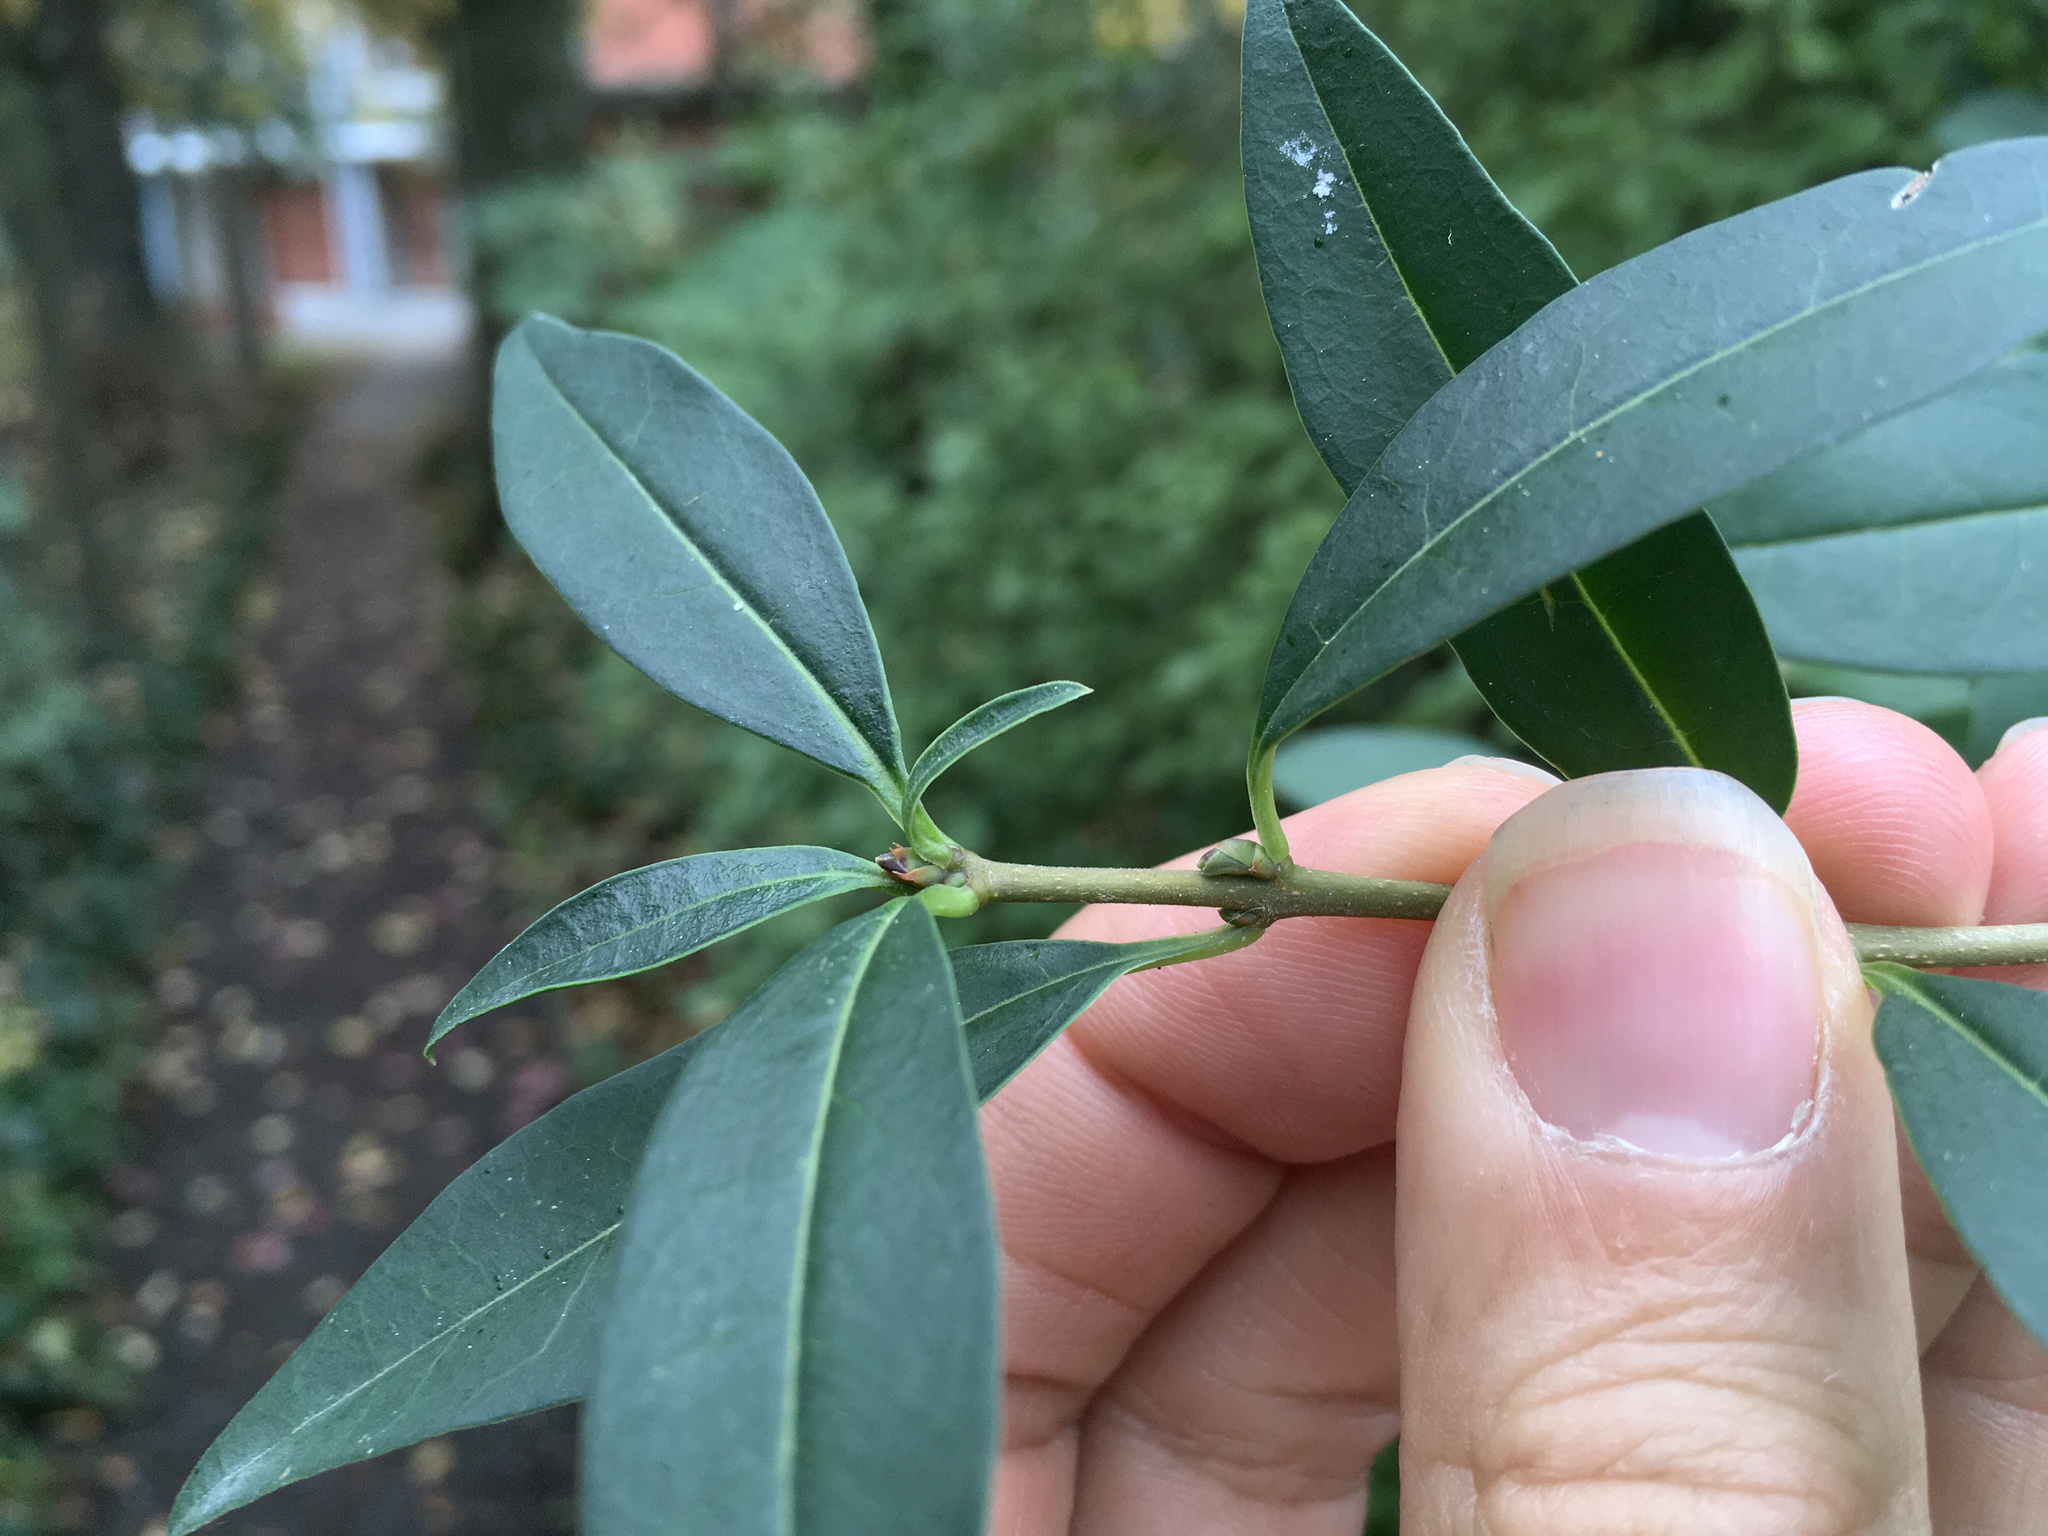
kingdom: Plantae
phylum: Tracheophyta
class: Magnoliopsida
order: Lamiales
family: Oleaceae
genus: Ligustrum
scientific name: Ligustrum vulgare
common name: Wild privet
